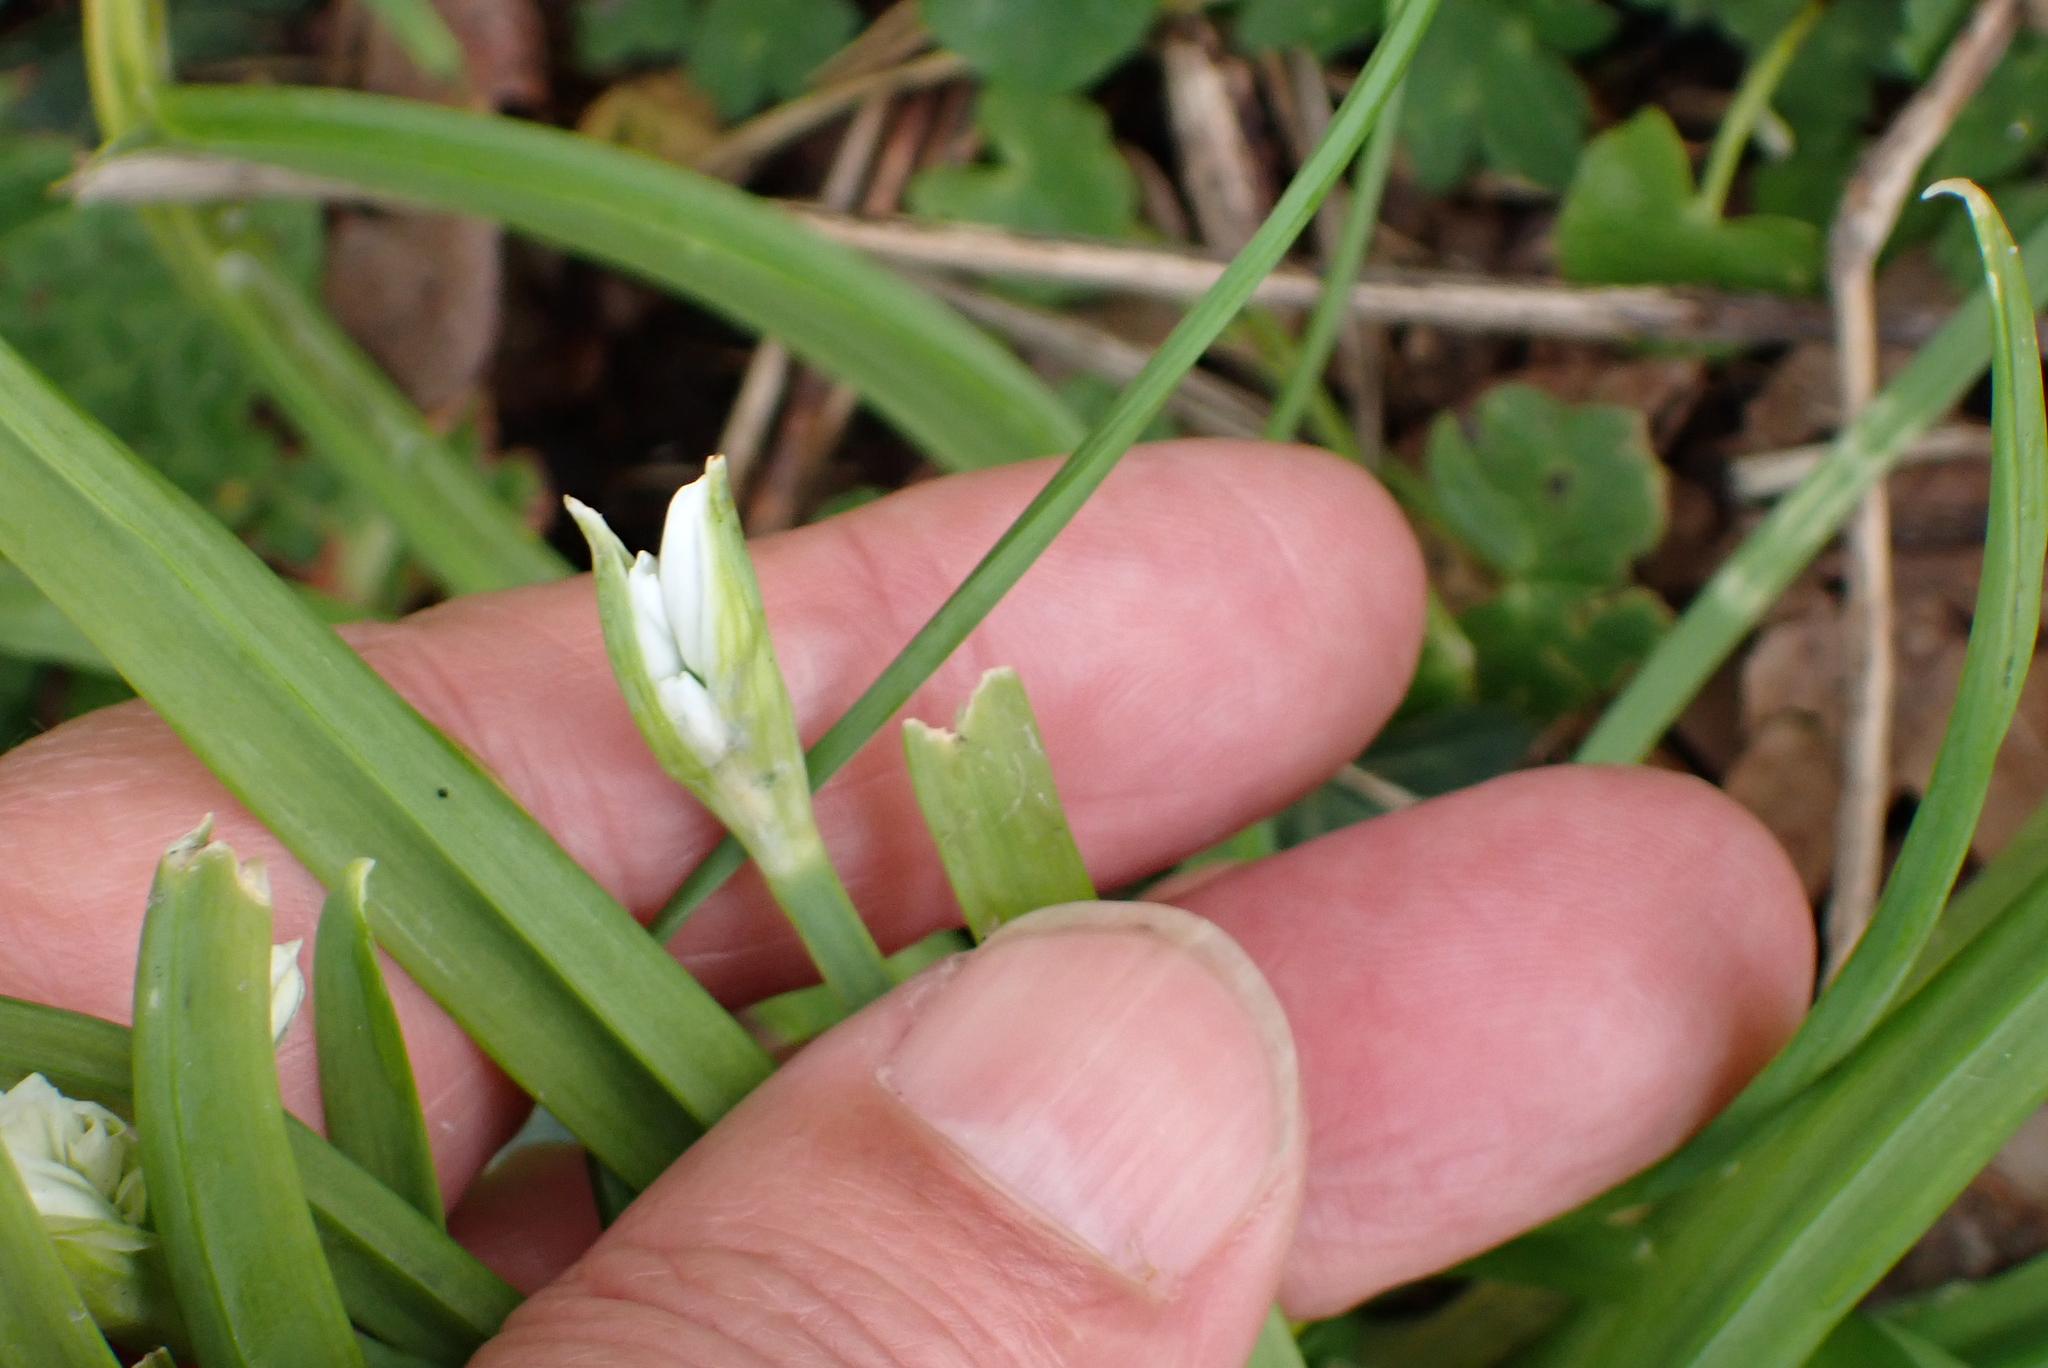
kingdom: Plantae
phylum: Tracheophyta
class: Liliopsida
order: Asparagales
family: Amaryllidaceae
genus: Allium
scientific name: Allium triquetrum
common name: Three-cornered garlic
